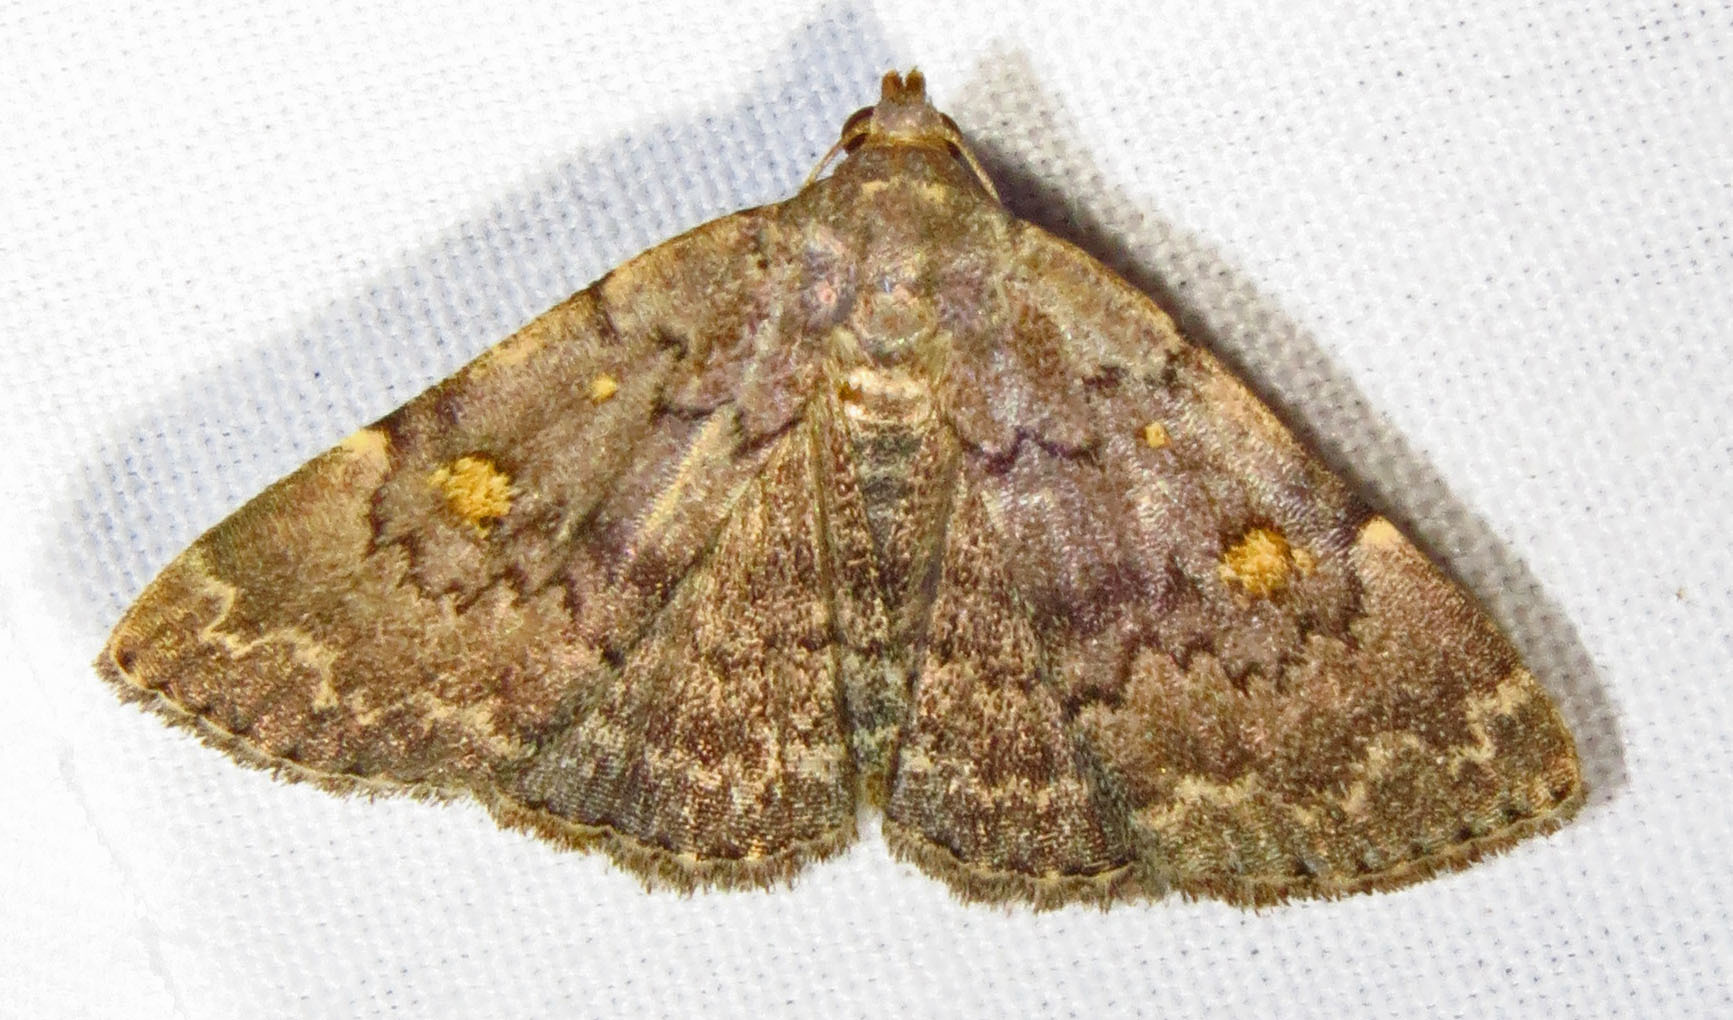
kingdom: Animalia
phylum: Arthropoda
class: Insecta
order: Lepidoptera
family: Erebidae
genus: Idia
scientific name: Idia aemula
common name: Common idia moth
